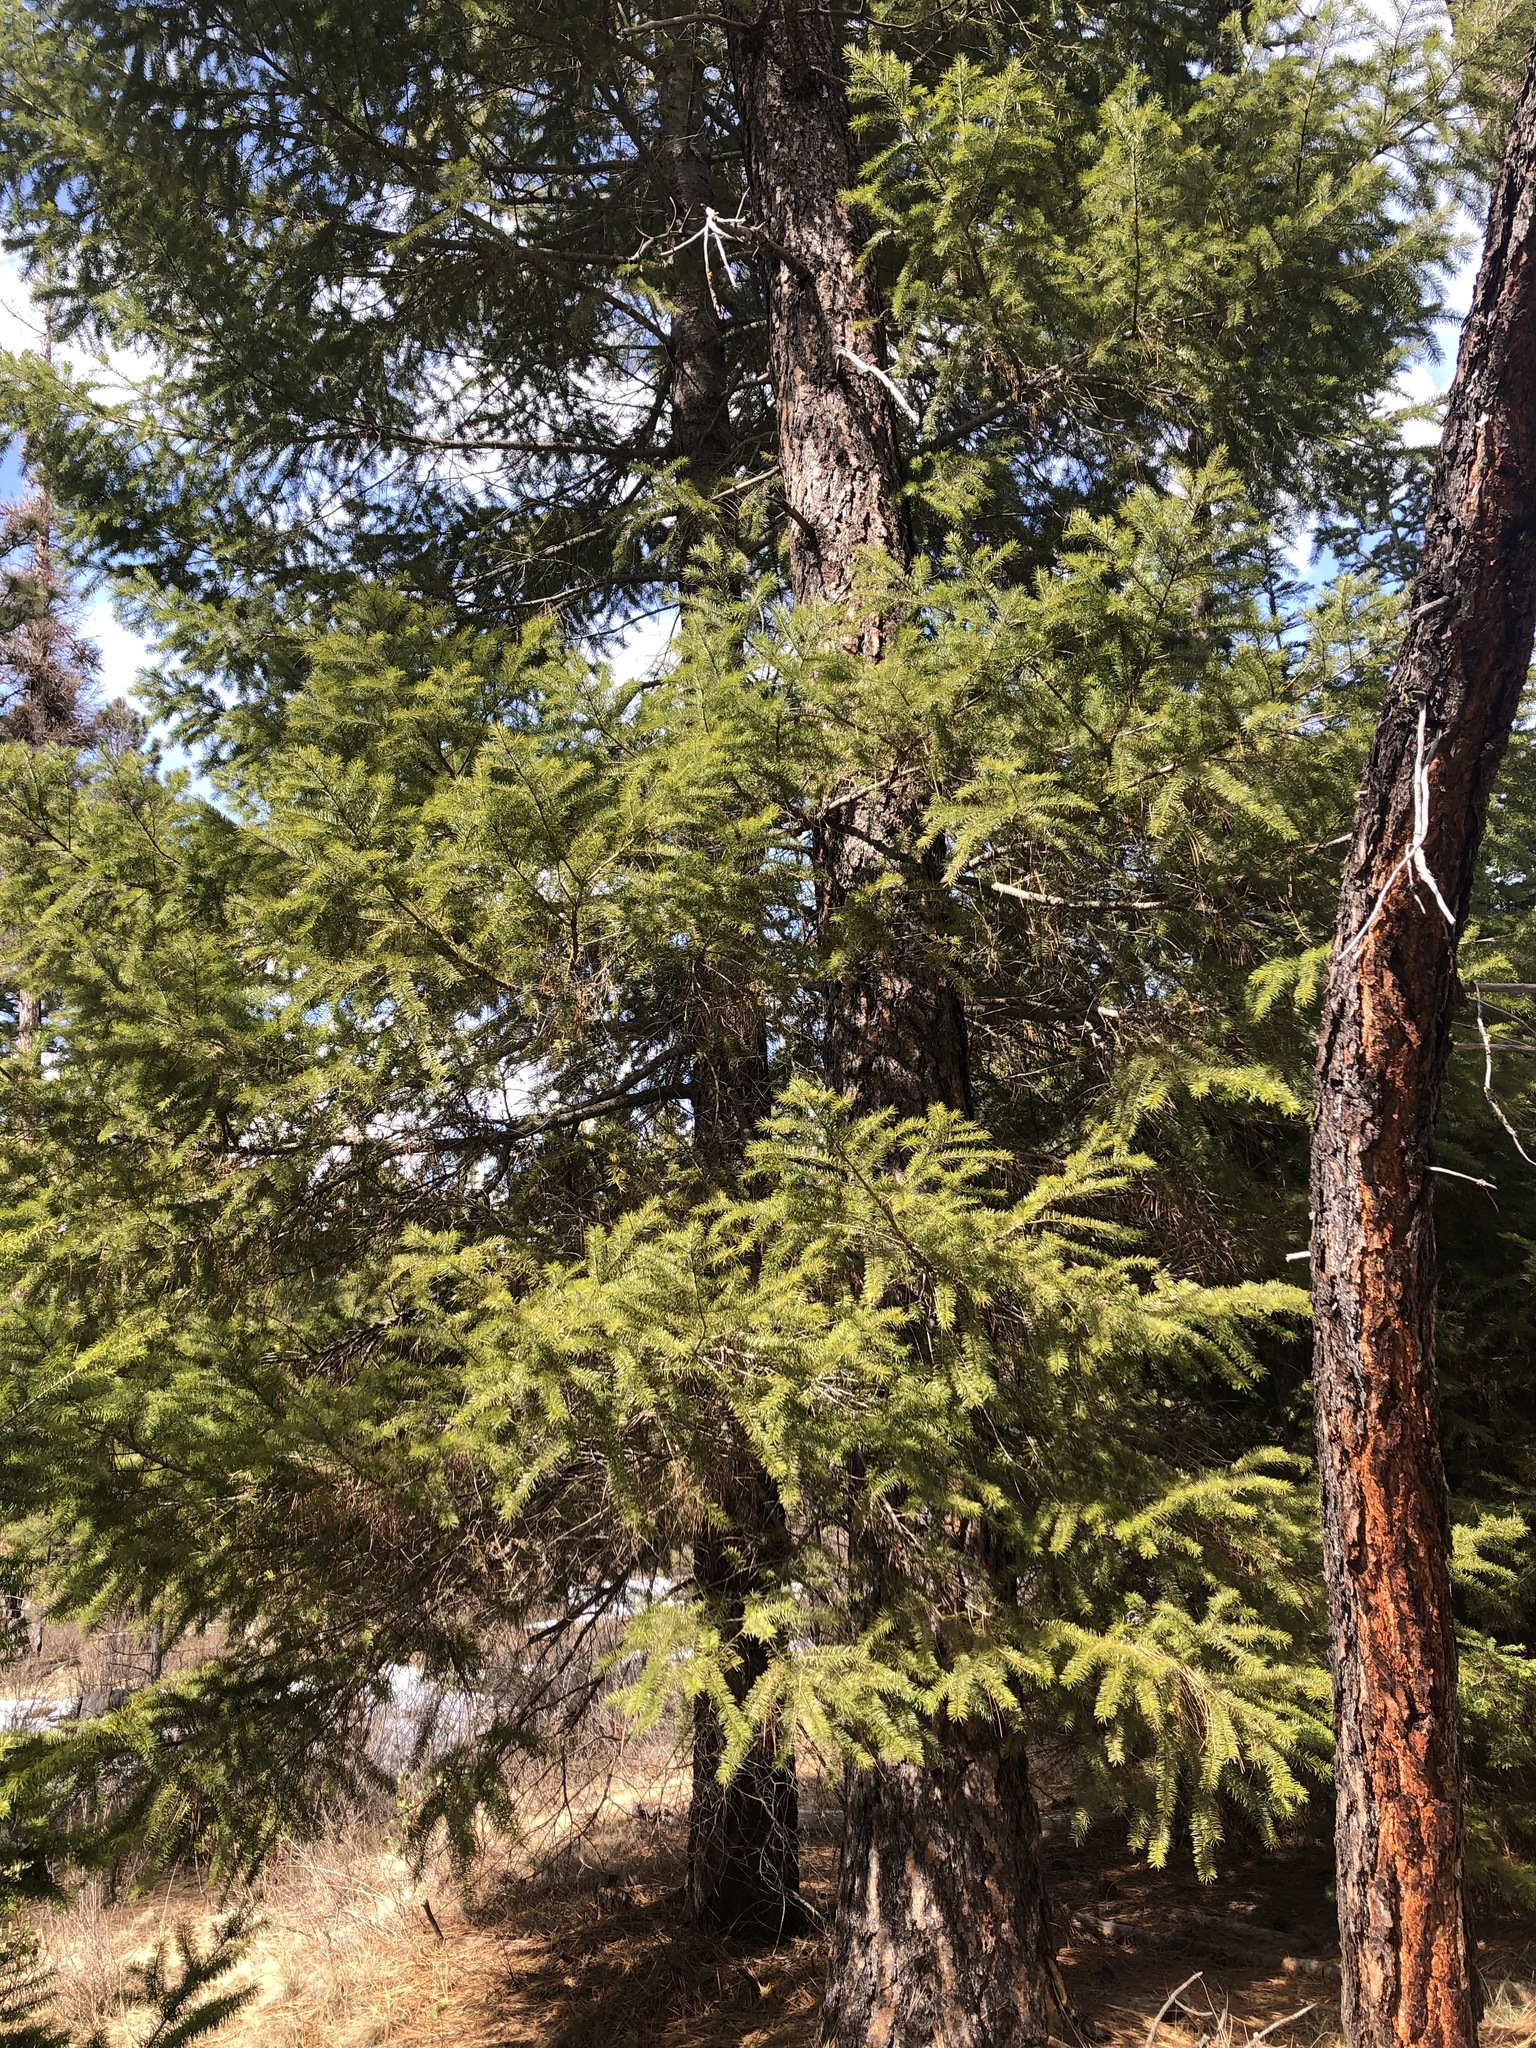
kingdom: Plantae
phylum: Tracheophyta
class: Pinopsida
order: Pinales
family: Pinaceae
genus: Pseudotsuga
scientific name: Pseudotsuga menziesii
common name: Douglas fir
